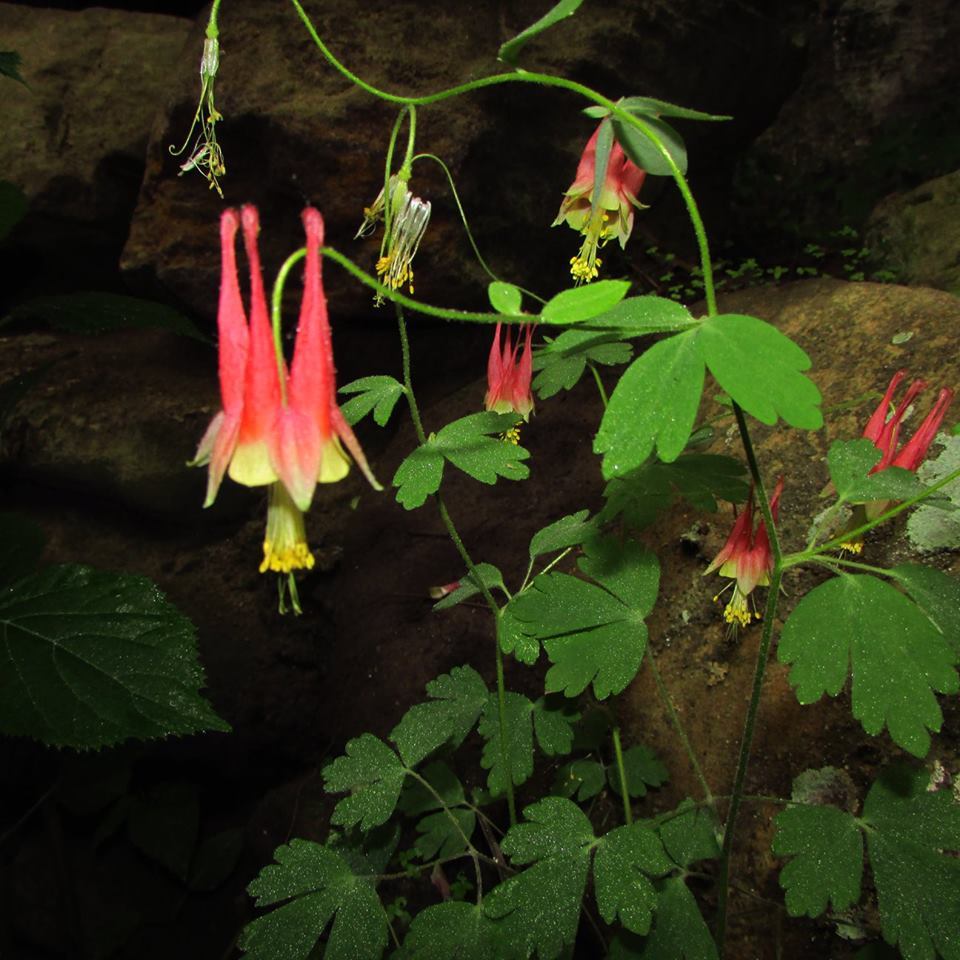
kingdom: Plantae
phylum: Tracheophyta
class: Magnoliopsida
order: Ranunculales
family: Ranunculaceae
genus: Aquilegia
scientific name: Aquilegia canadensis
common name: American columbine
